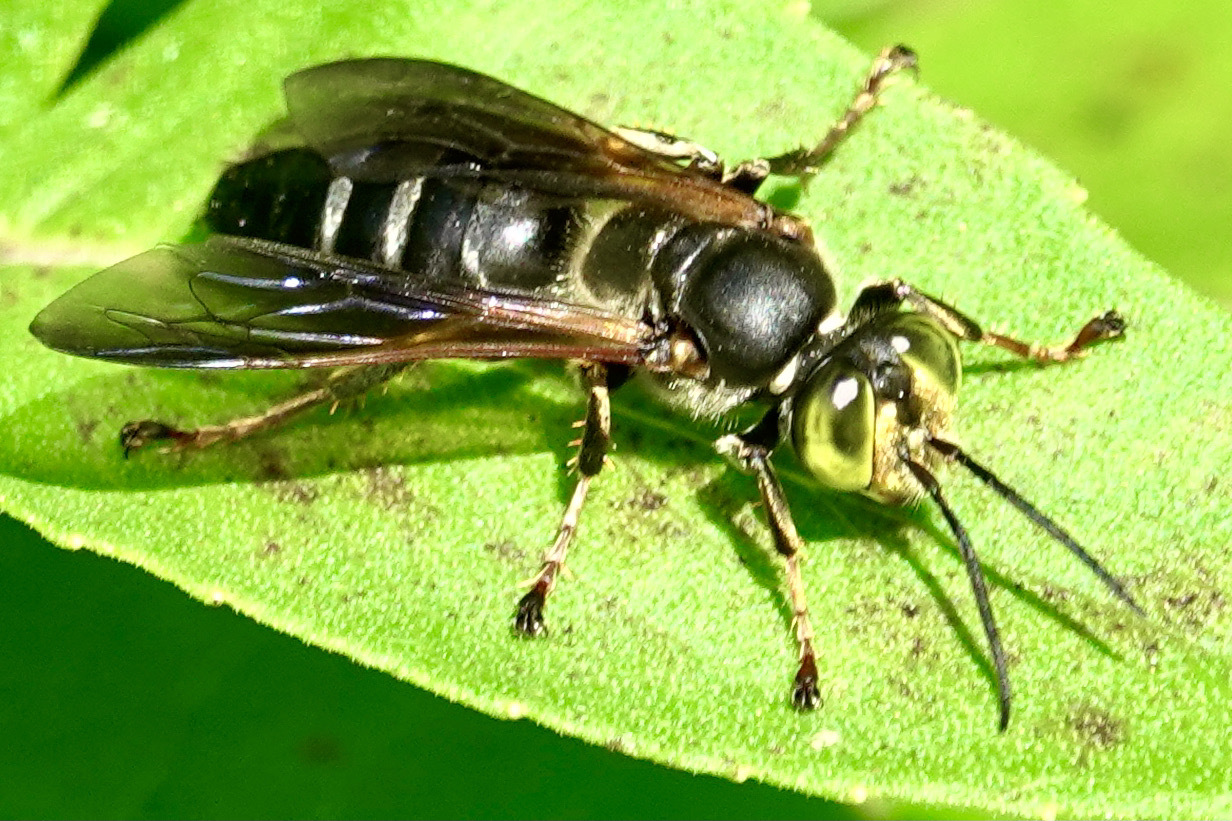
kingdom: Animalia
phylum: Arthropoda
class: Insecta
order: Hymenoptera
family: Crabronidae
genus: Tachytes
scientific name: Tachytes guatemalensis
